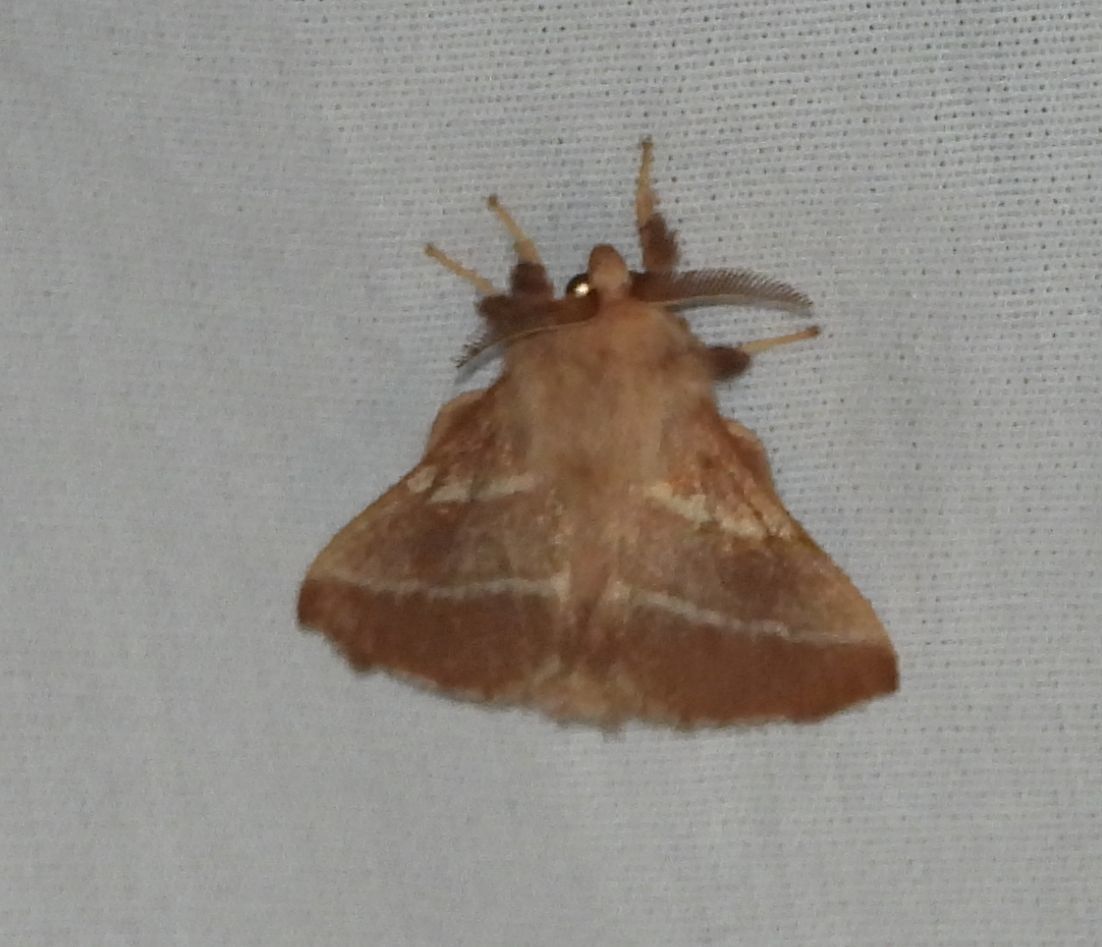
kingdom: Animalia
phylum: Arthropoda
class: Insecta
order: Lepidoptera
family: Lasiocampidae
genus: Malacosoma
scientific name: Malacosoma americana
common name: Eastern tent caterpillar moth
